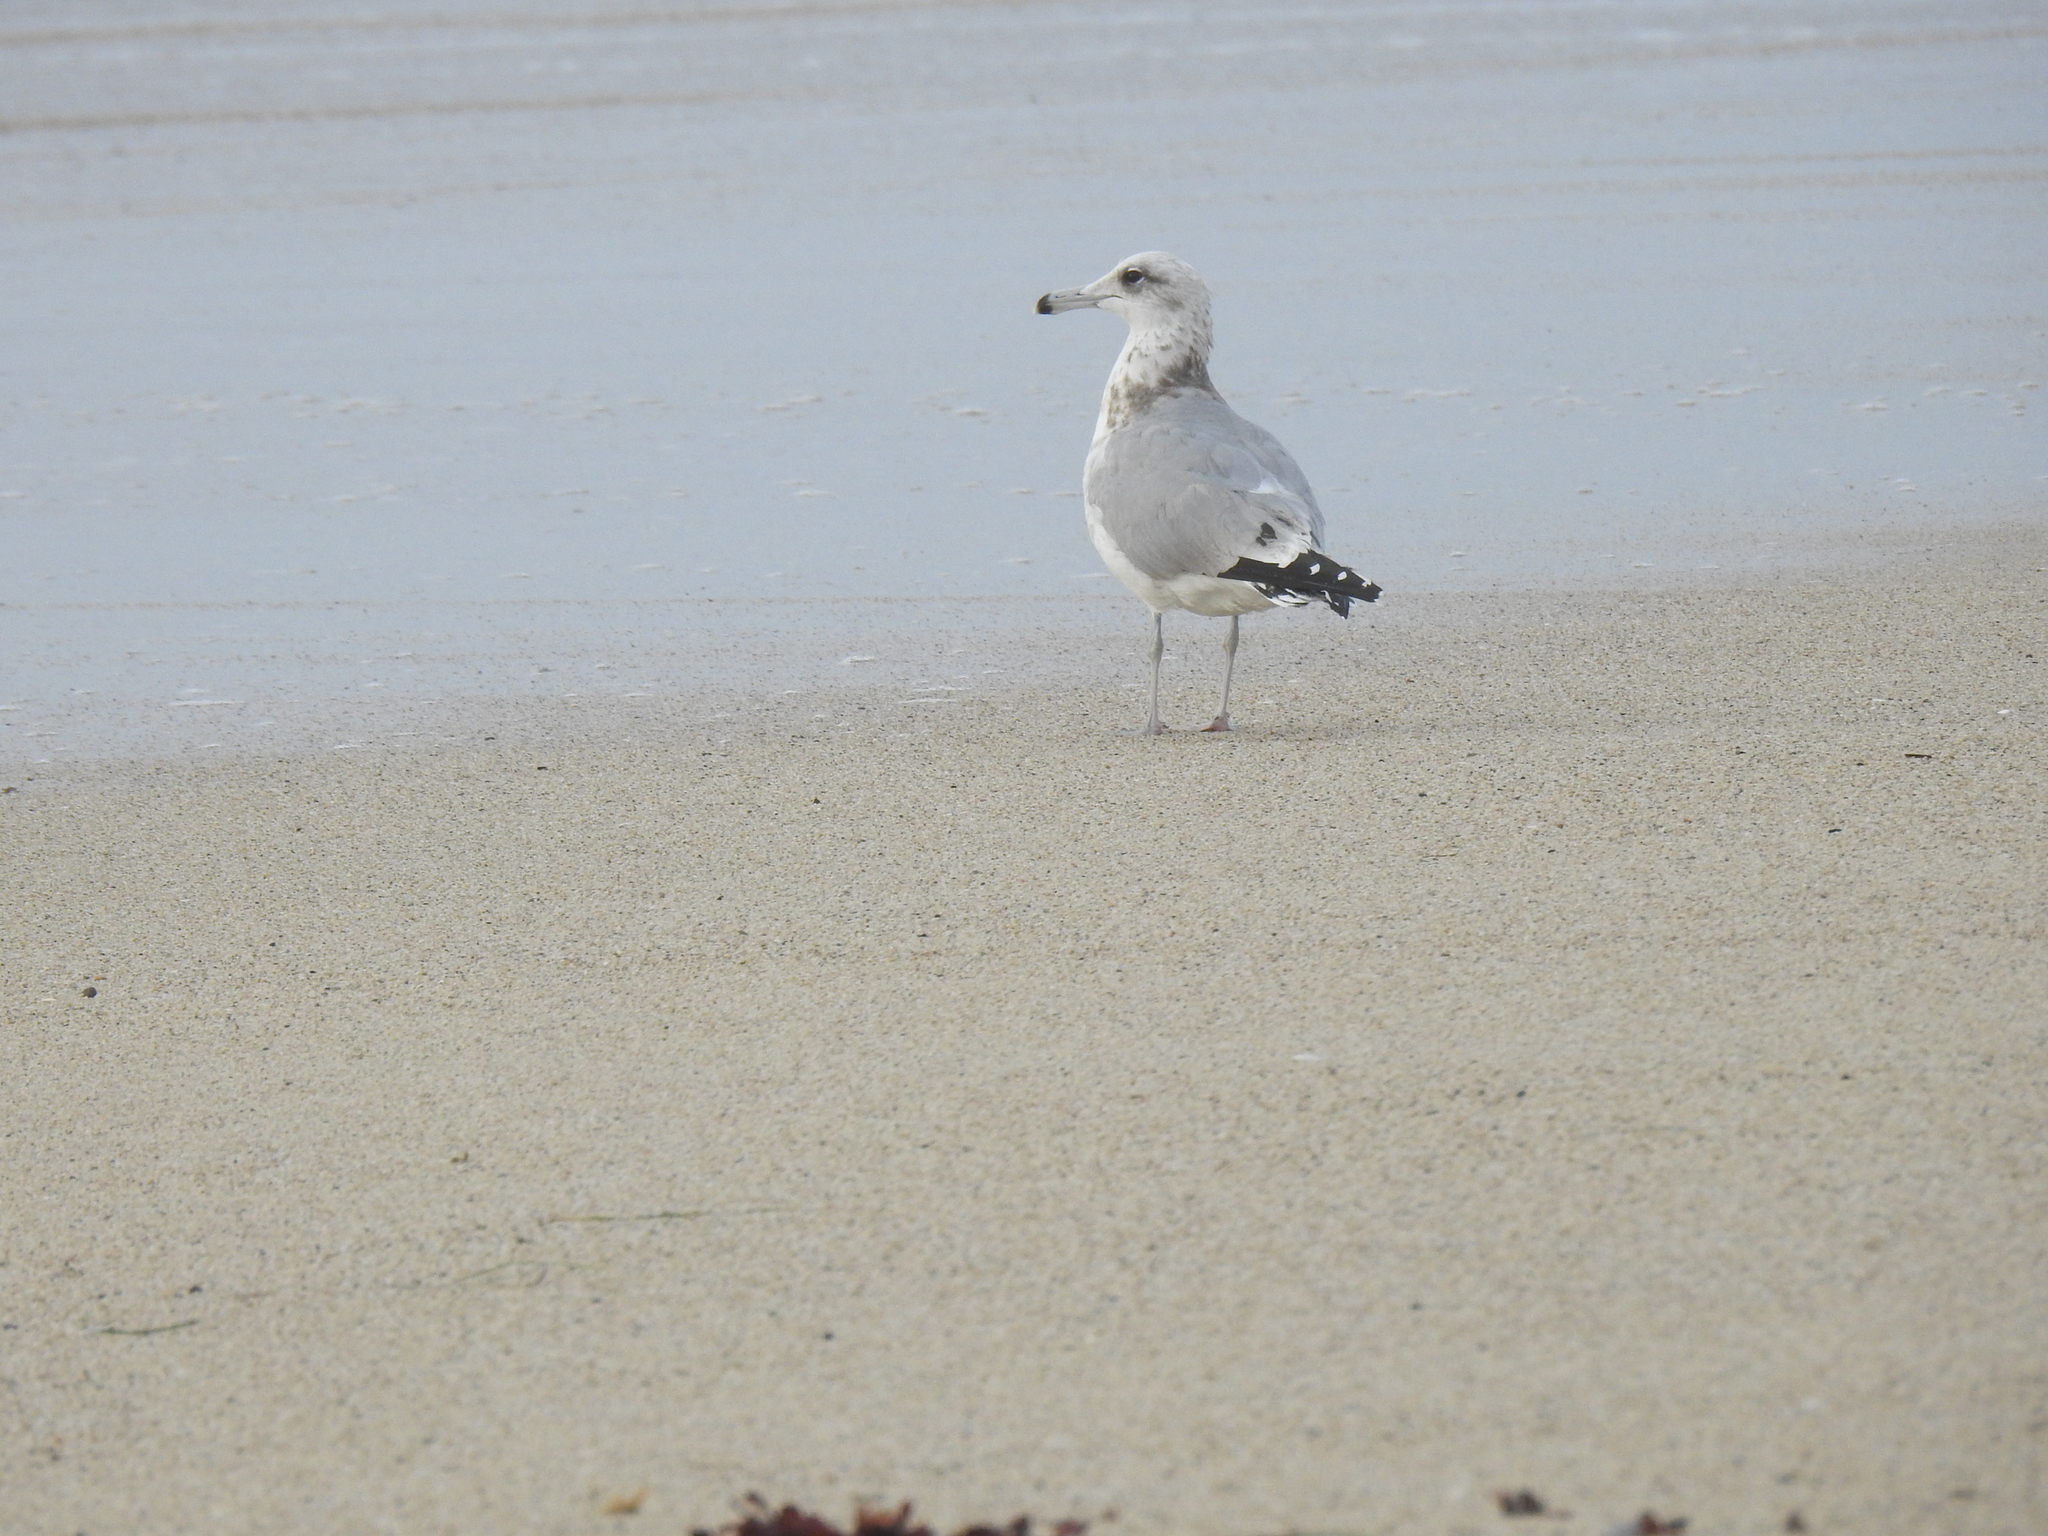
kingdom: Animalia
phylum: Chordata
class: Aves
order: Charadriiformes
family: Laridae
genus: Larus
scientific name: Larus californicus
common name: California gull
